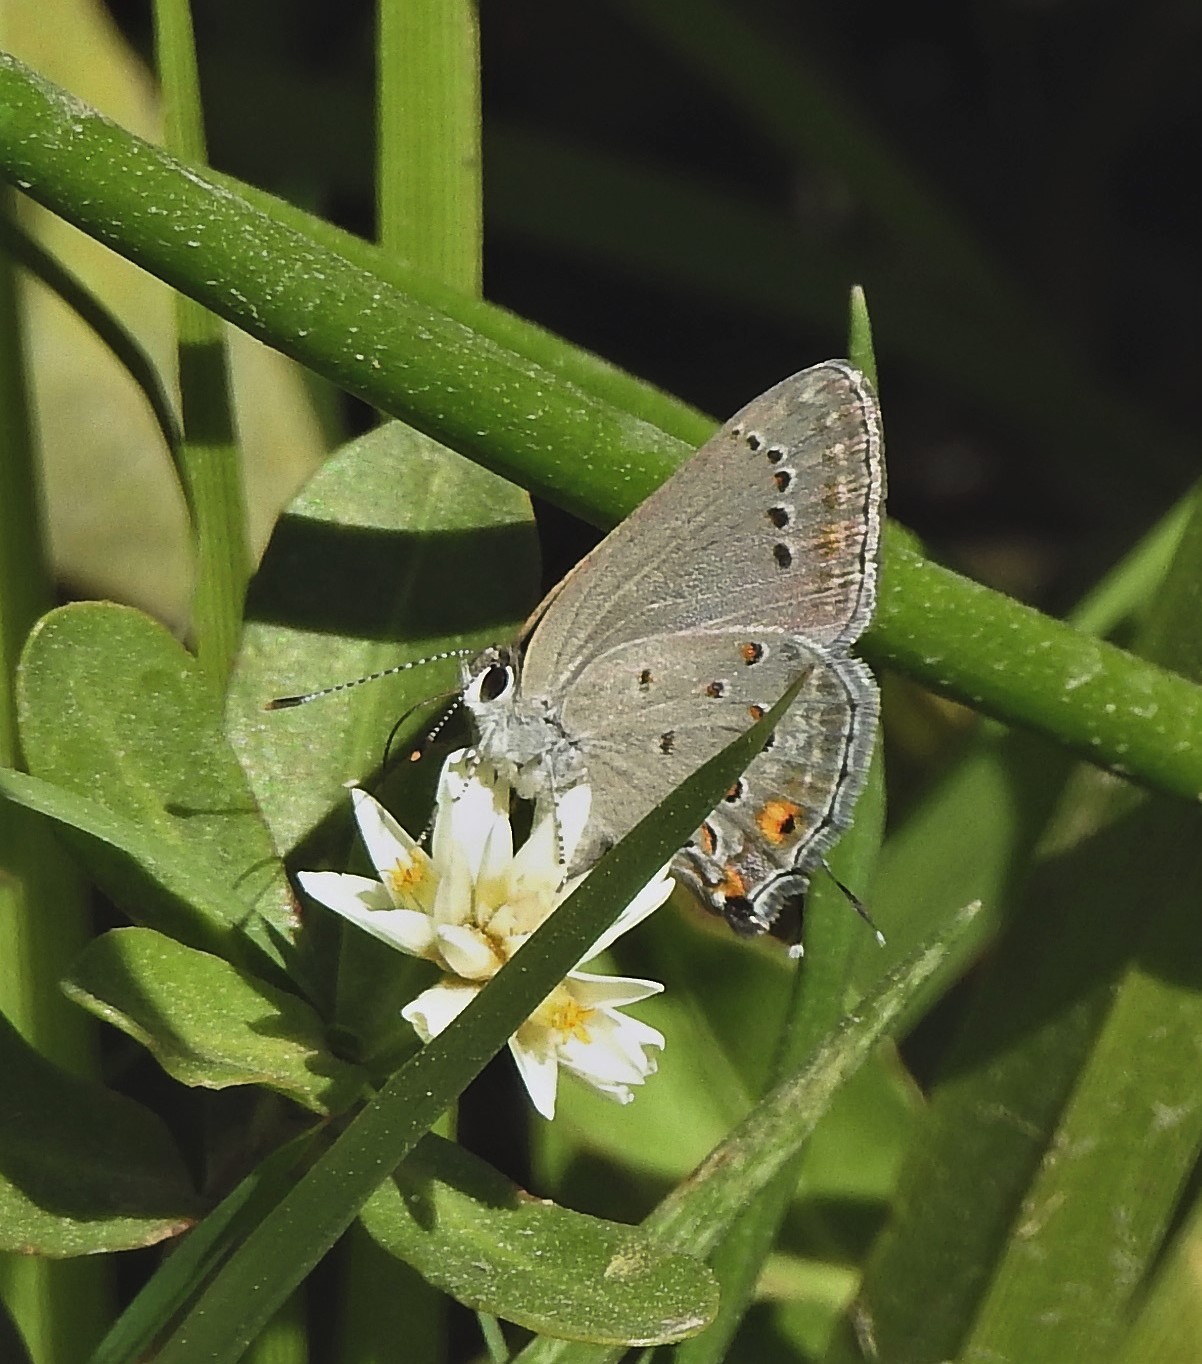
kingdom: Animalia
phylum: Arthropoda
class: Insecta
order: Lepidoptera
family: Lycaenidae
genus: Strymon
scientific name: Strymon eurytulus
